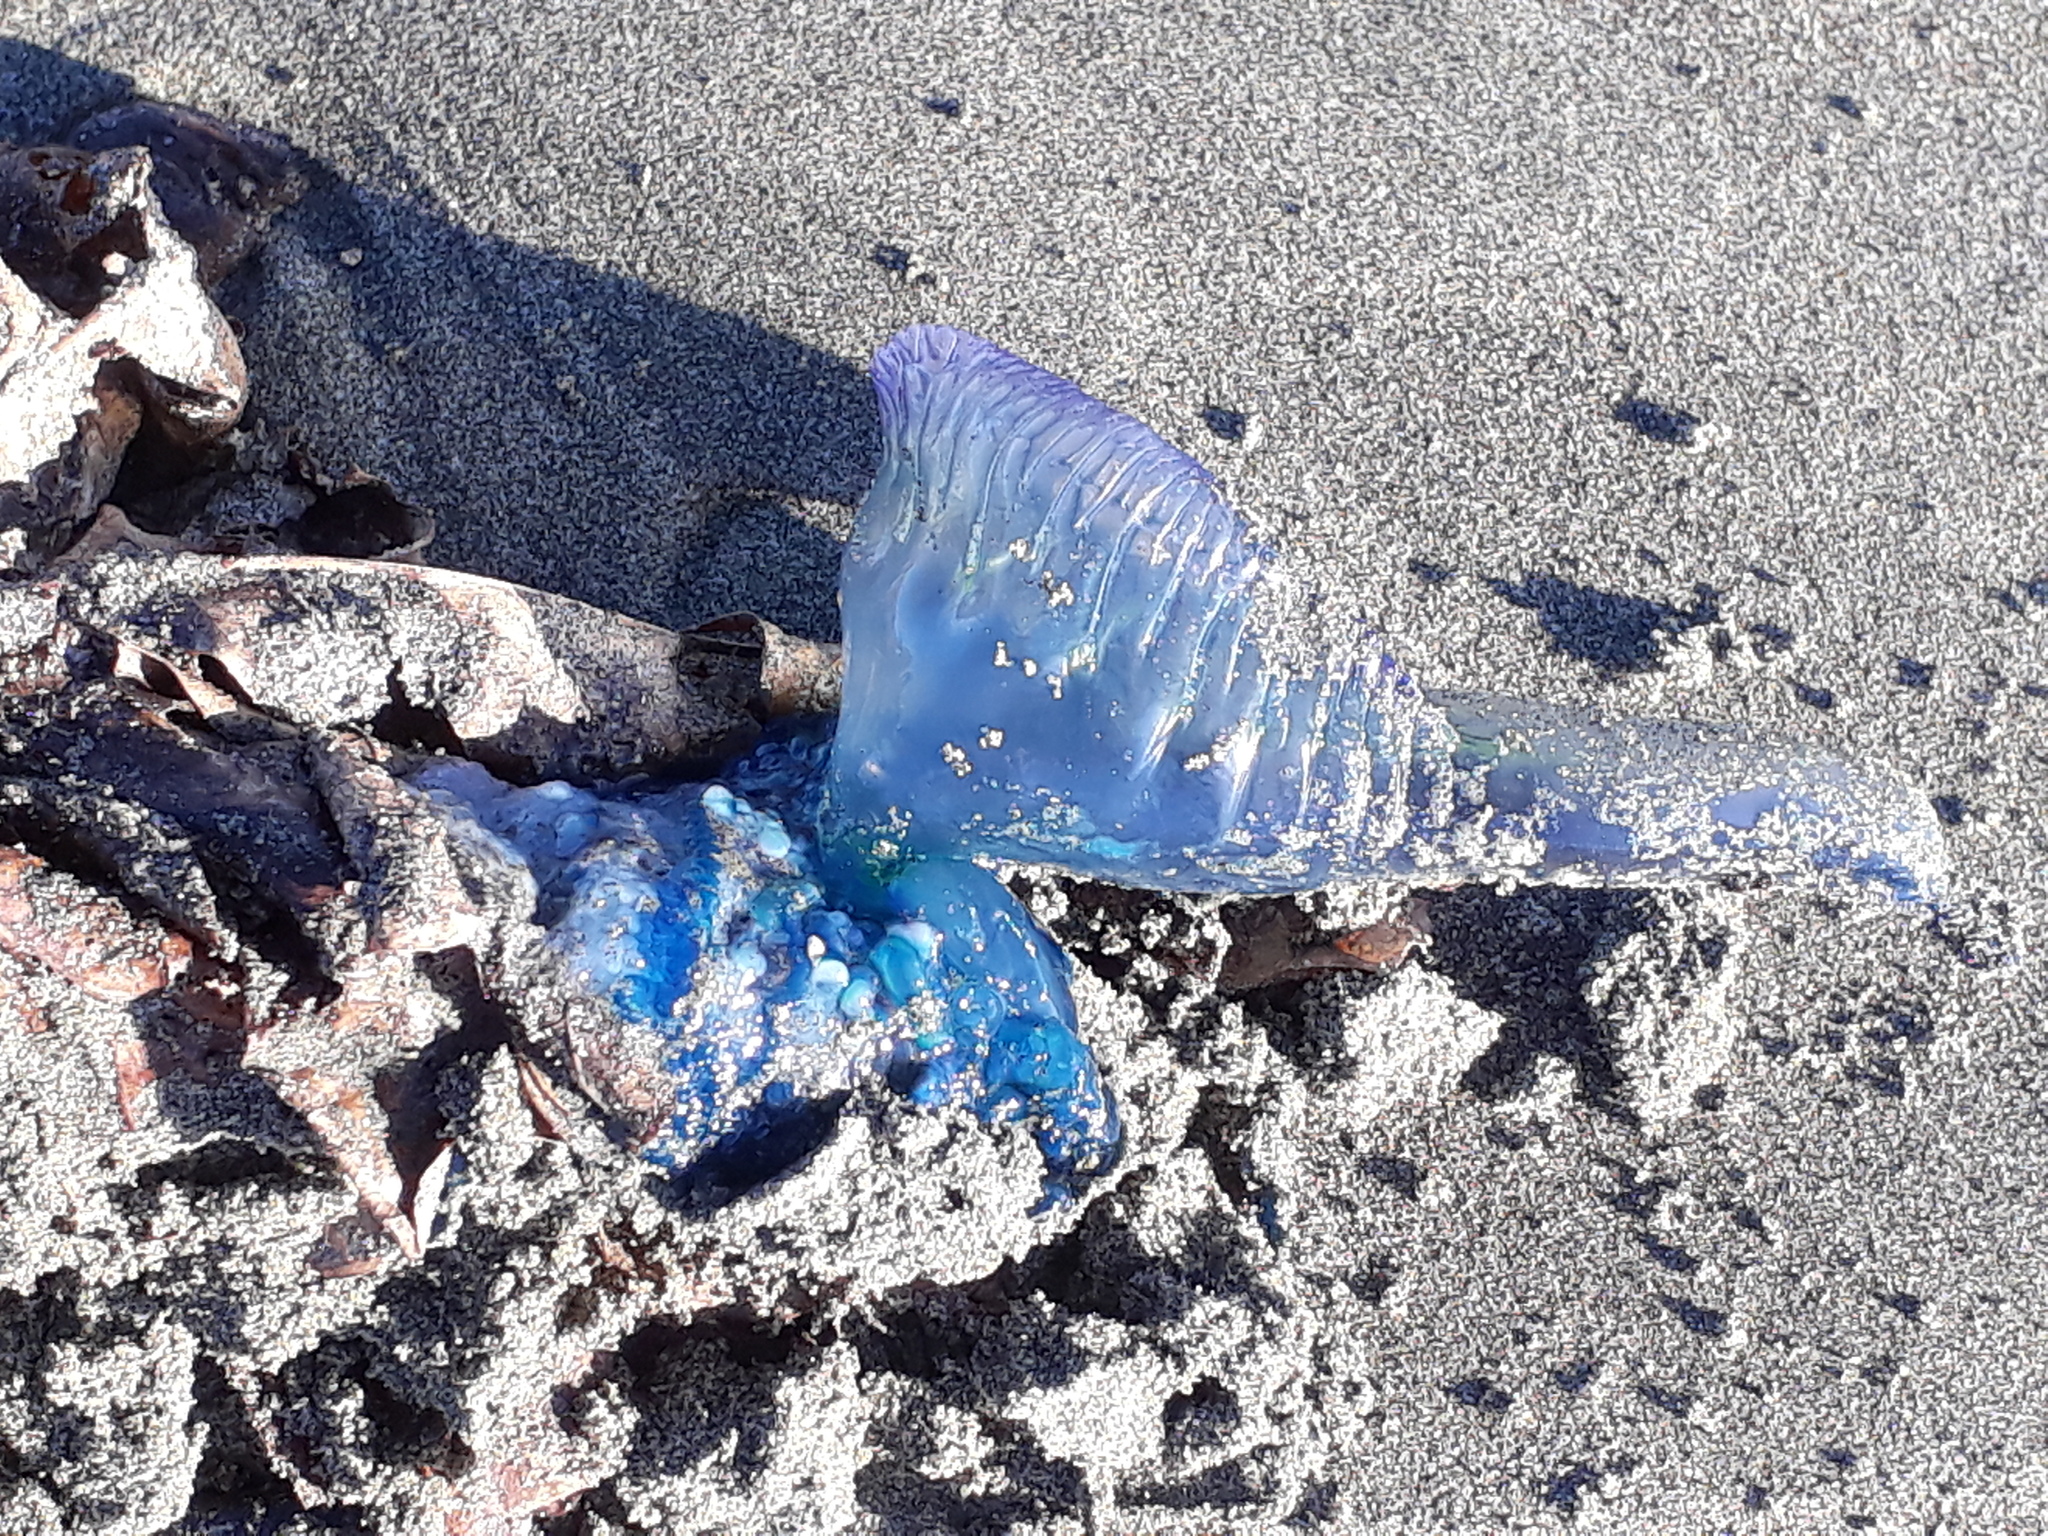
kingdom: Animalia
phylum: Cnidaria
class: Hydrozoa
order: Siphonophorae
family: Physaliidae
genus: Physalia
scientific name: Physalia physalis
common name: Portuguese man-of-war
